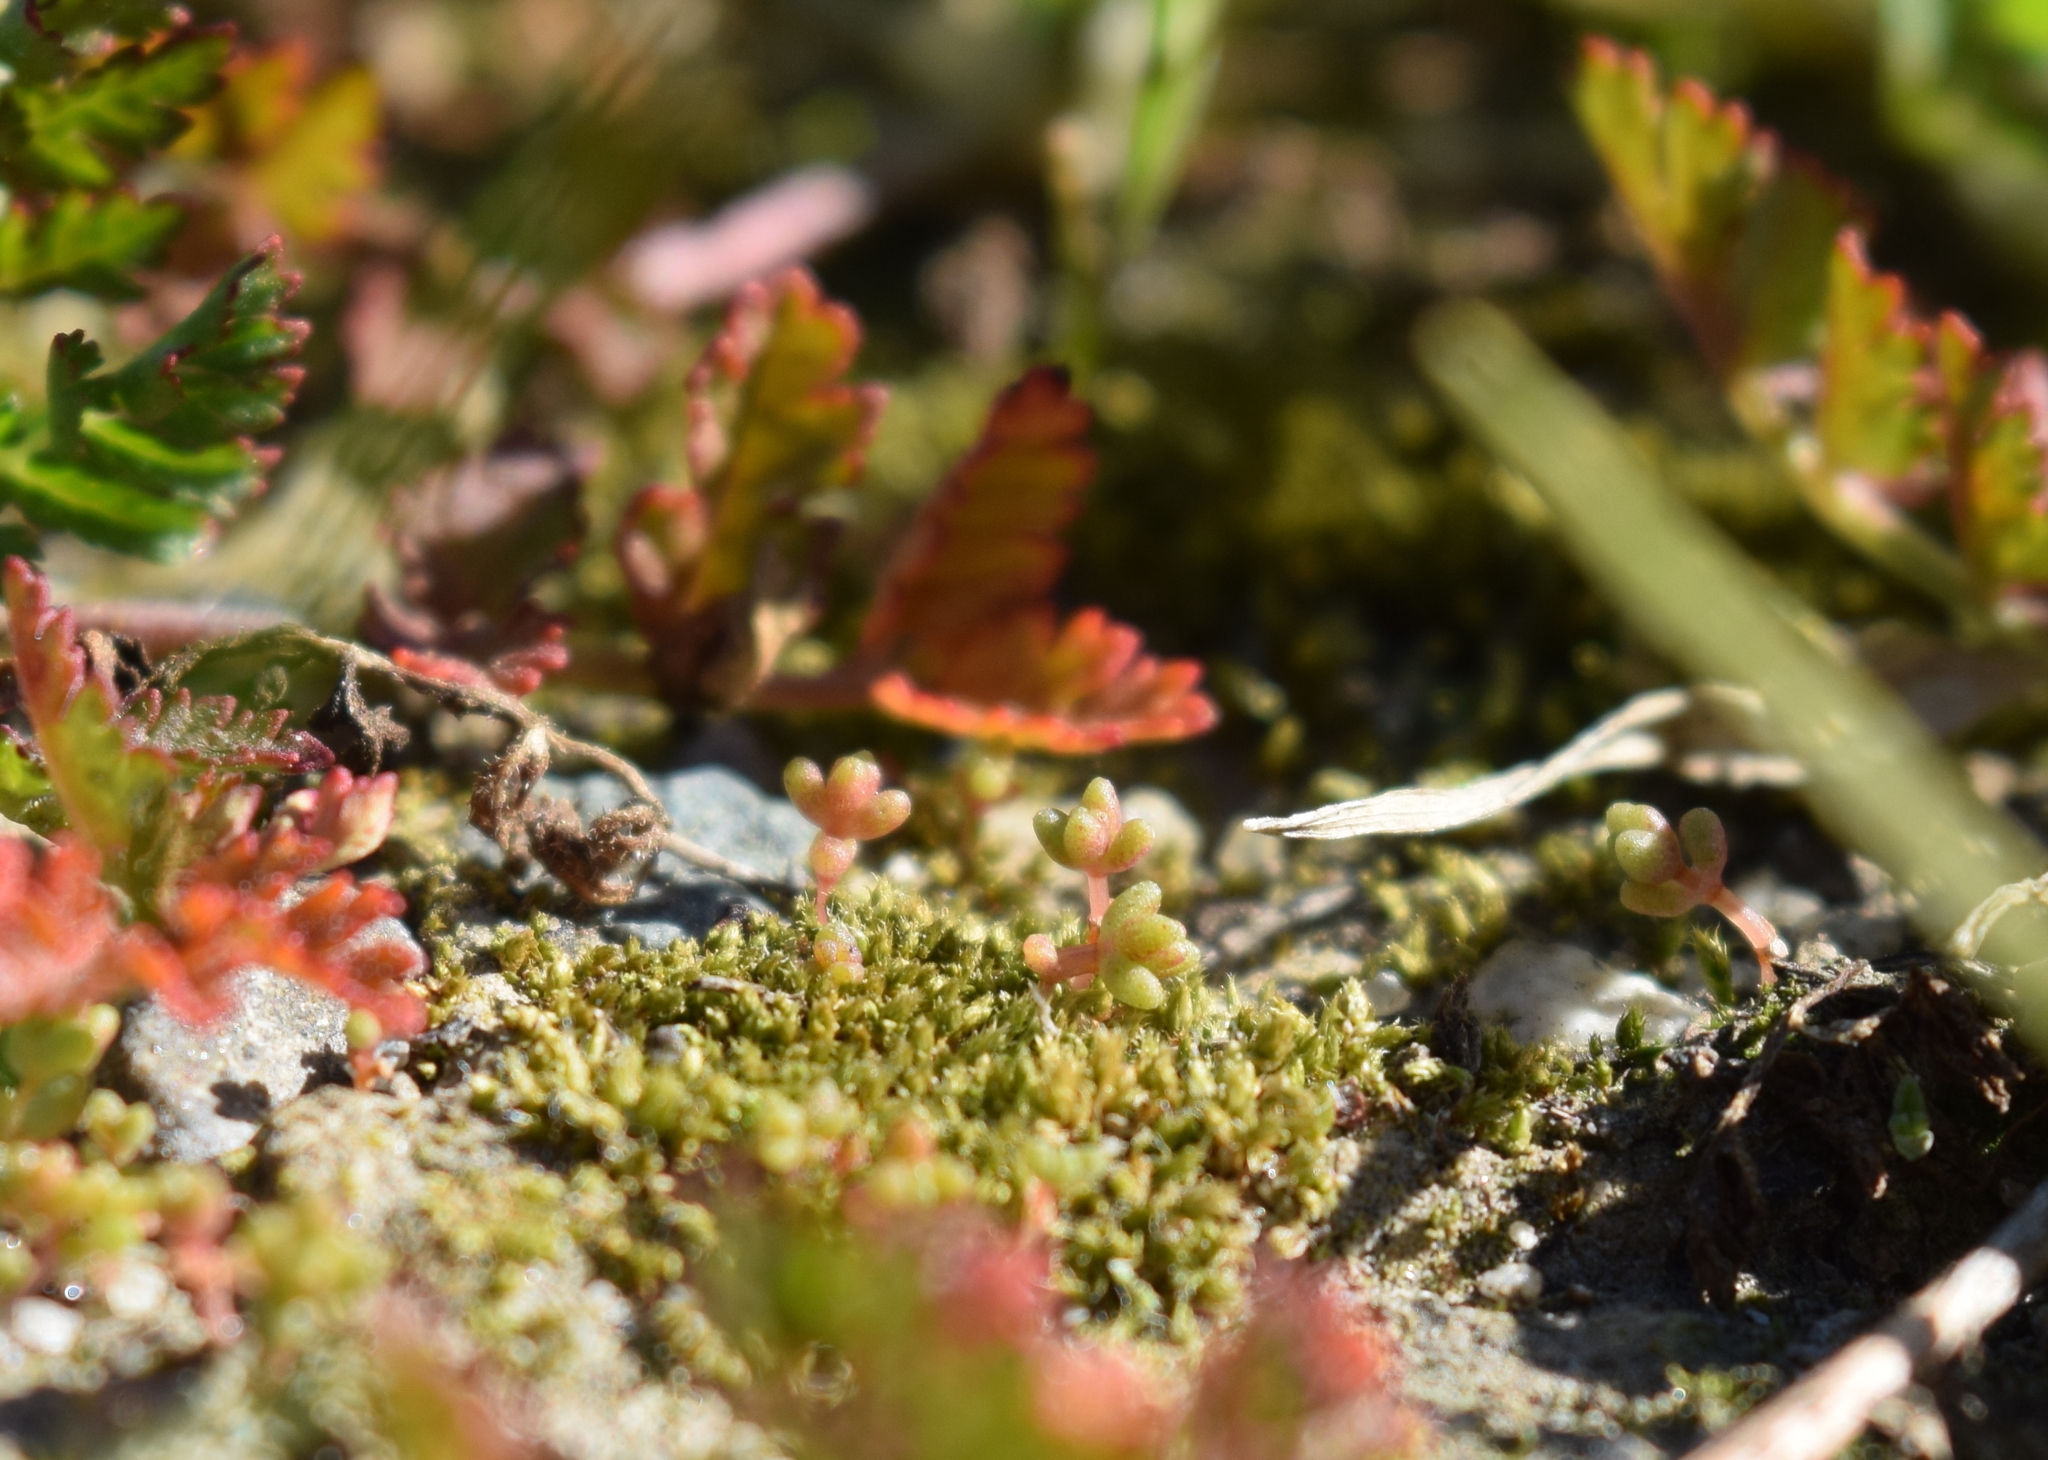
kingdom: Plantae
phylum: Tracheophyta
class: Magnoliopsida
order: Saxifragales
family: Crassulaceae
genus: Crassula
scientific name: Crassula connata
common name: Erect pygmyweed
